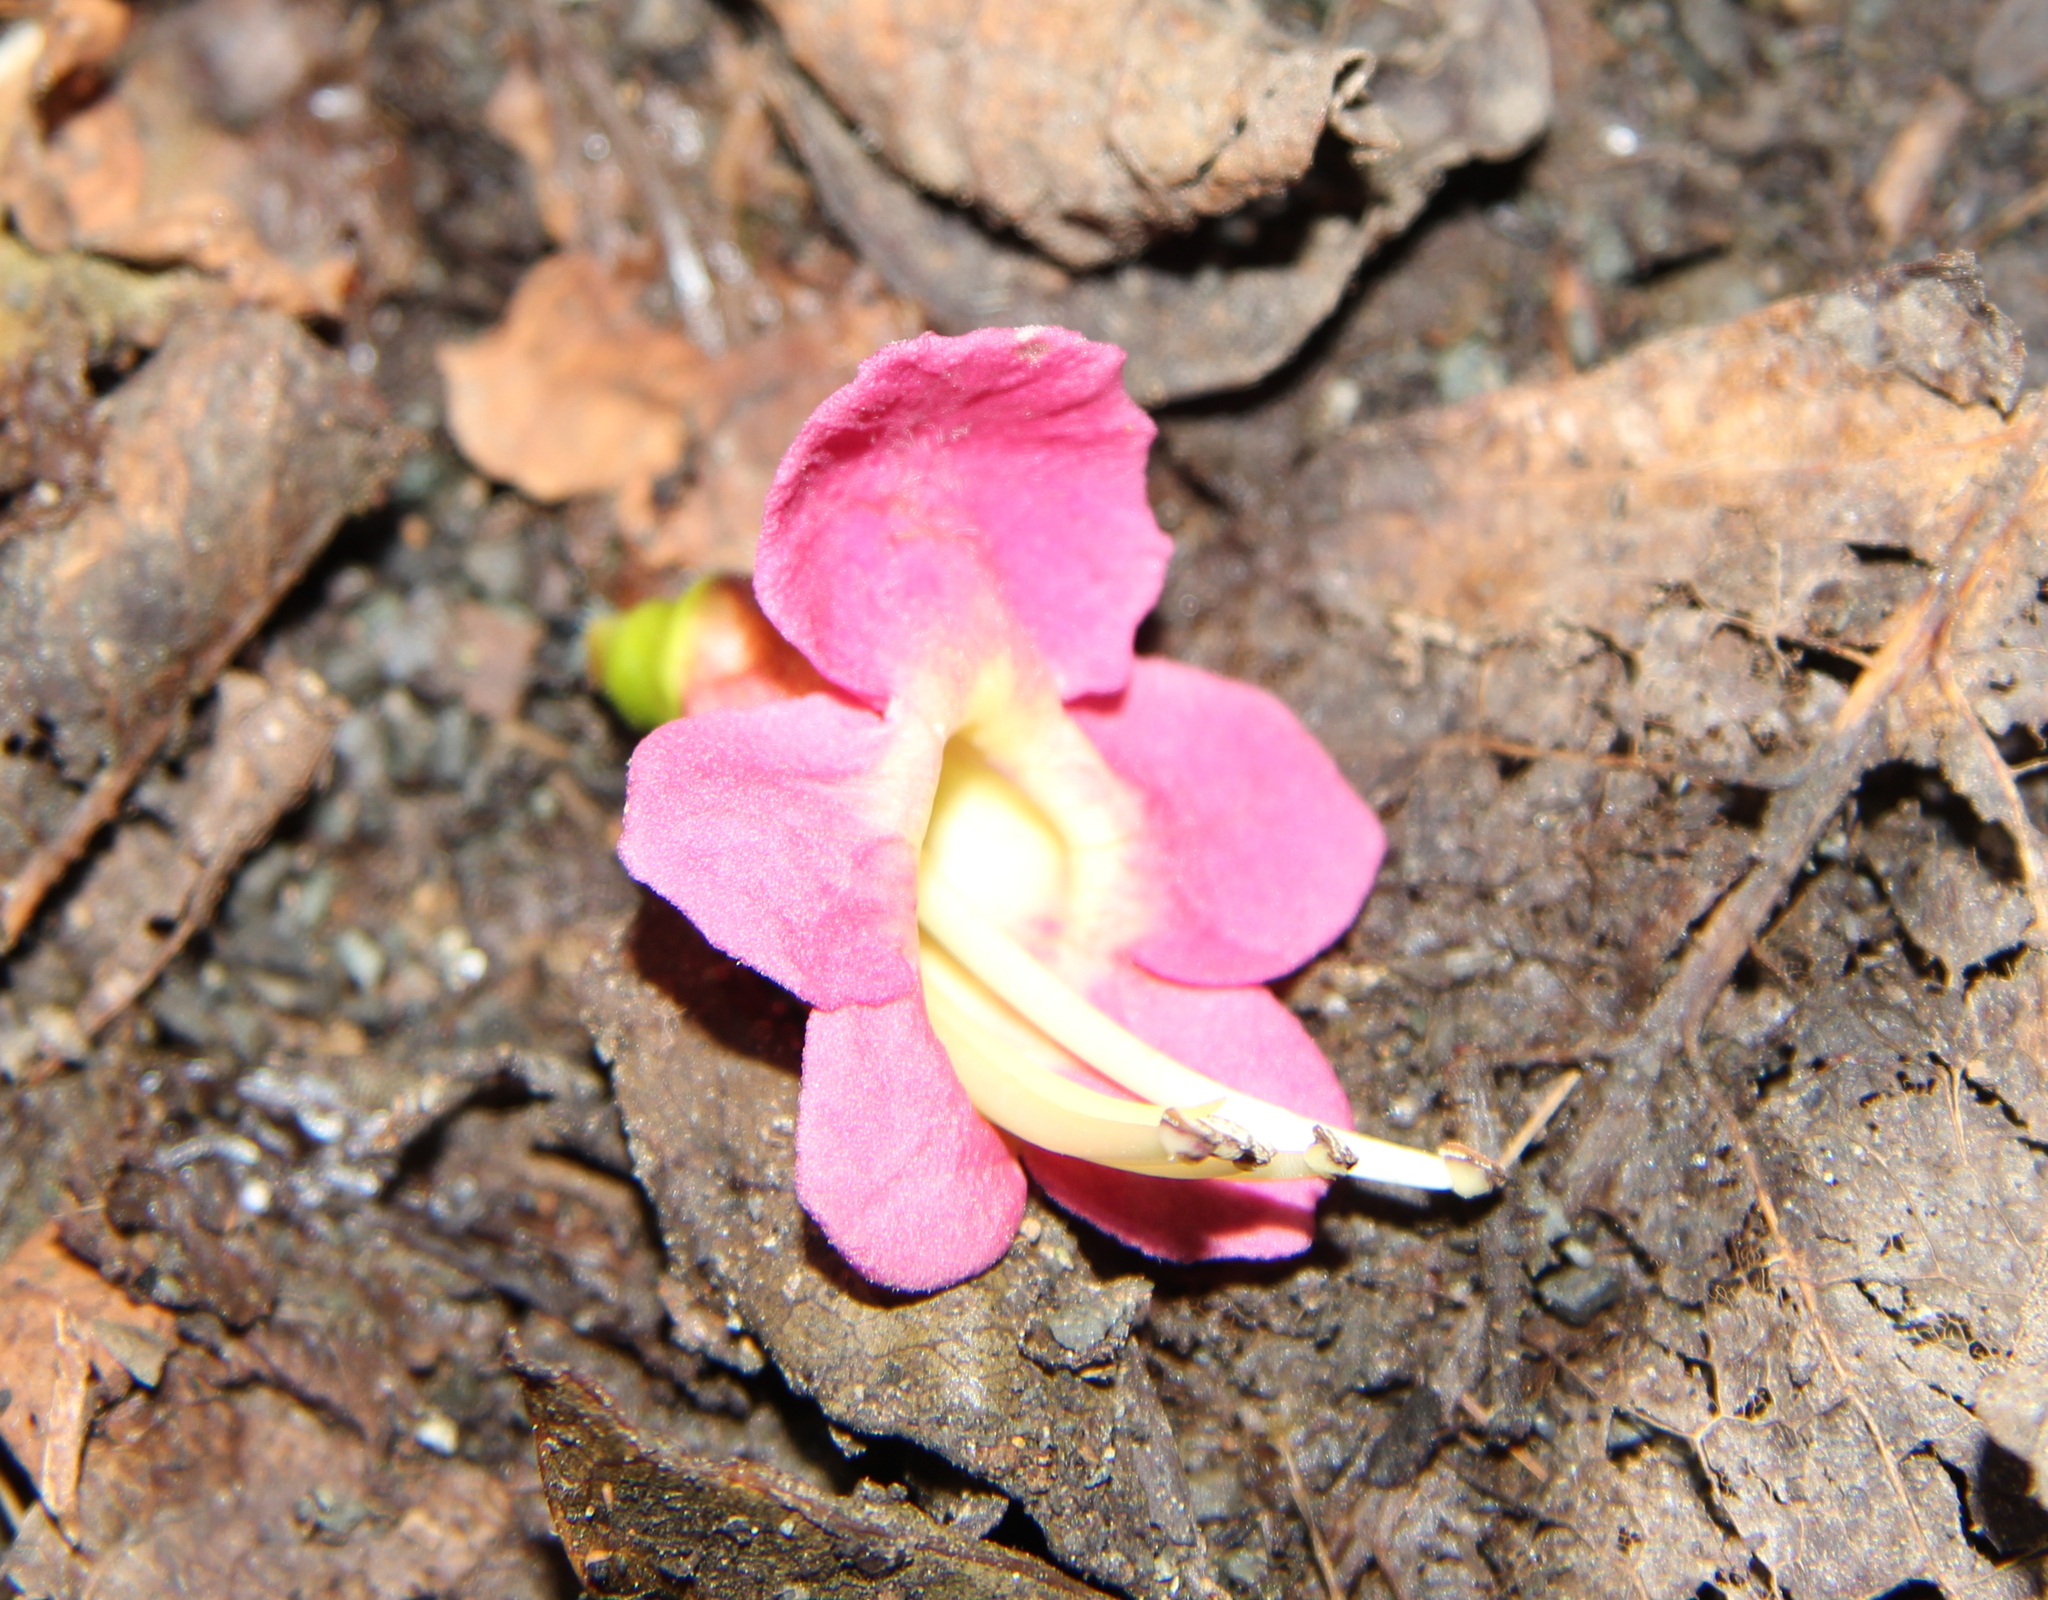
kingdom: Plantae
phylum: Tracheophyta
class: Magnoliopsida
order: Lamiales
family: Lamiaceae
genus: Vitex
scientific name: Vitex lucens
